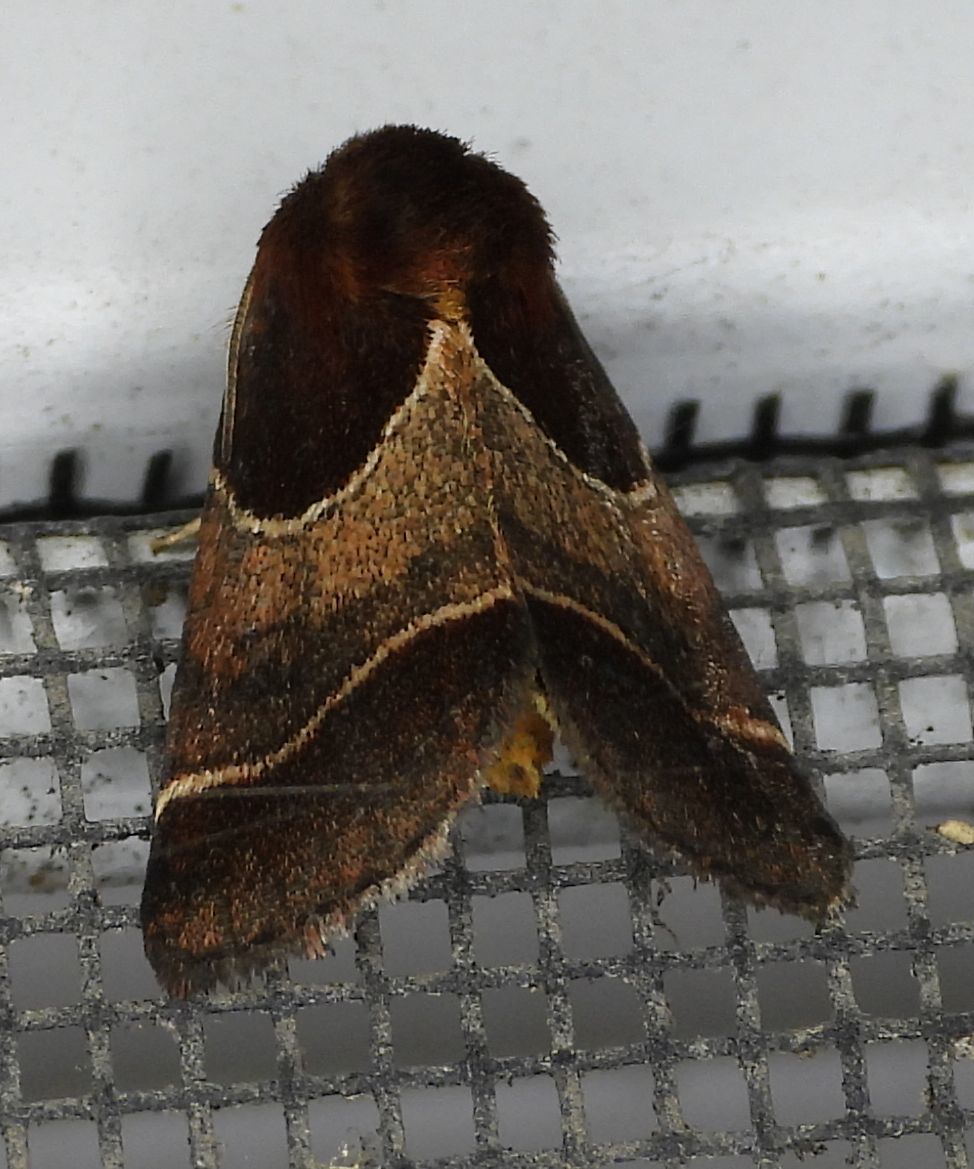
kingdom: Animalia
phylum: Arthropoda
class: Insecta
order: Lepidoptera
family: Noctuidae
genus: Schinia
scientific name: Schinia arcigera
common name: Arcigera flower moth
